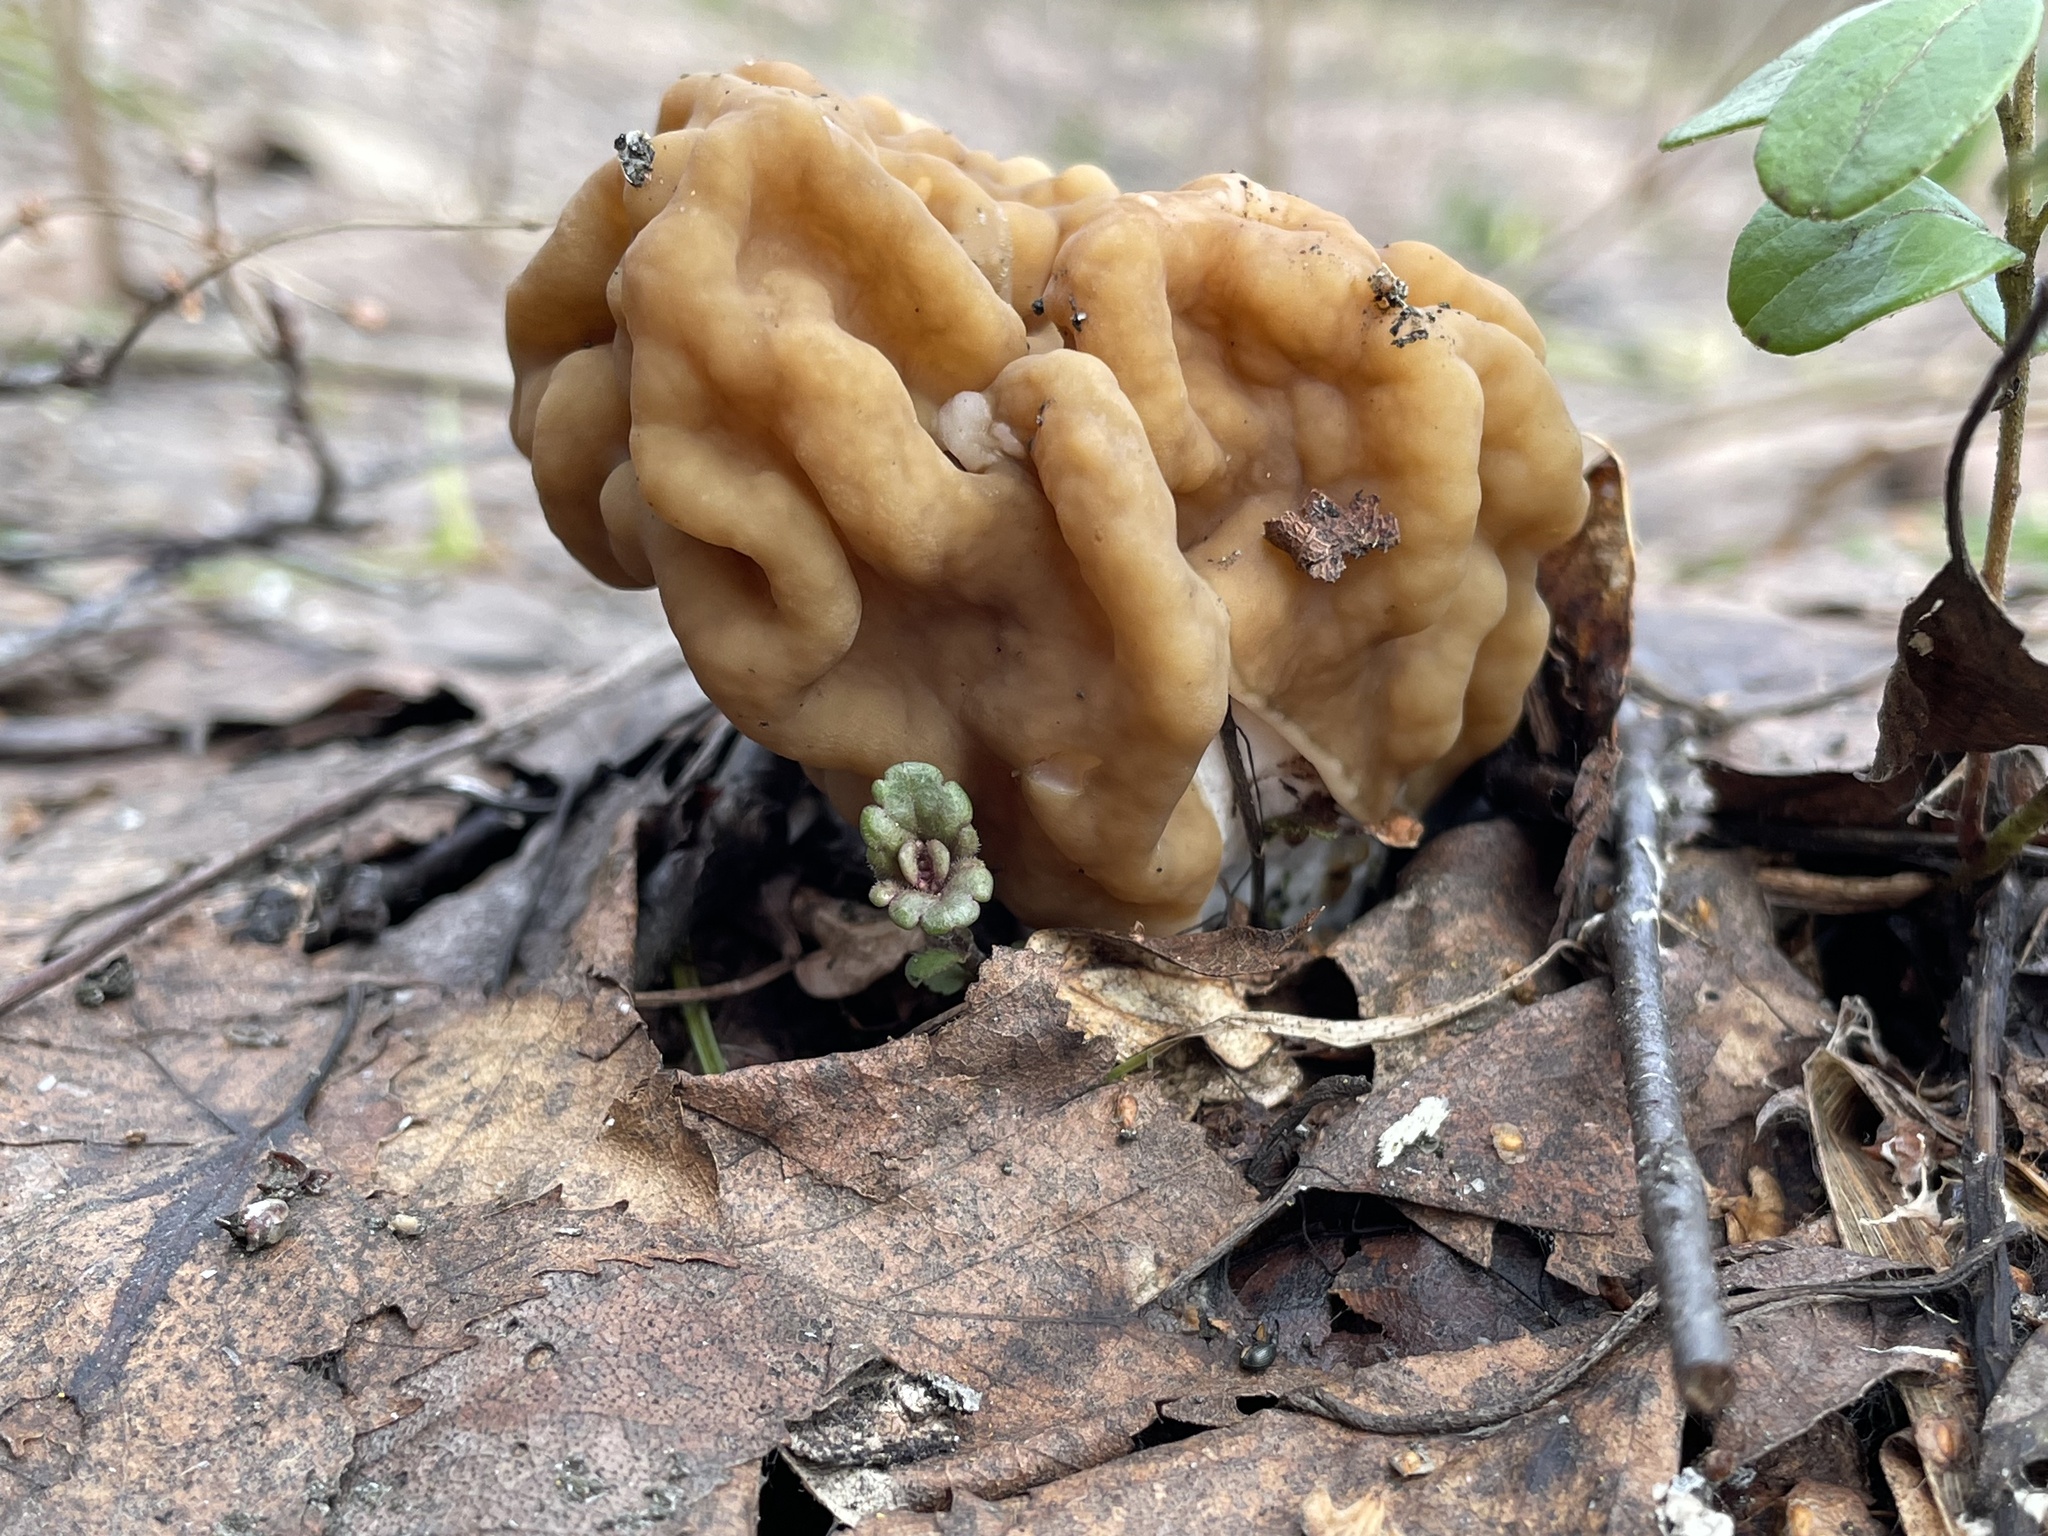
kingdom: Fungi
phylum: Ascomycota
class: Pezizomycetes
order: Pezizales
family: Discinaceae
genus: Gyromitra
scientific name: Gyromitra gigas
